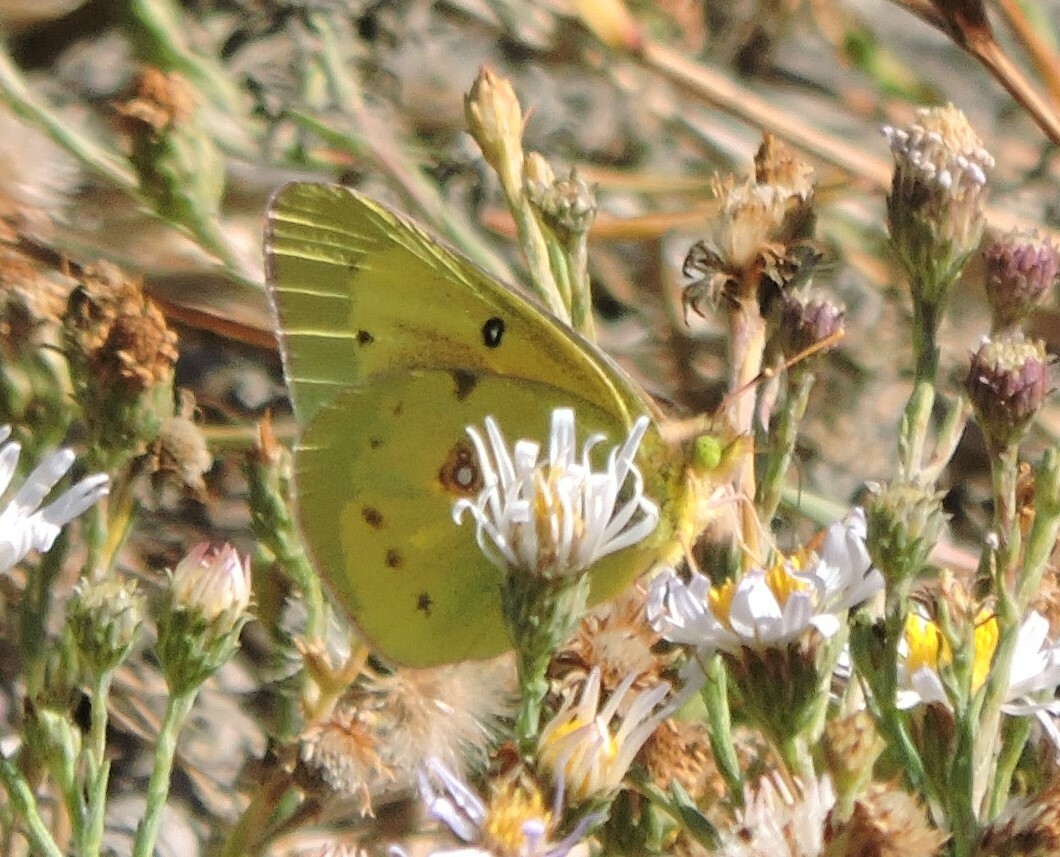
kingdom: Animalia
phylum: Arthropoda
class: Insecta
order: Lepidoptera
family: Pieridae
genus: Colias
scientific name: Colias eurytheme
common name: Alfalfa butterfly
